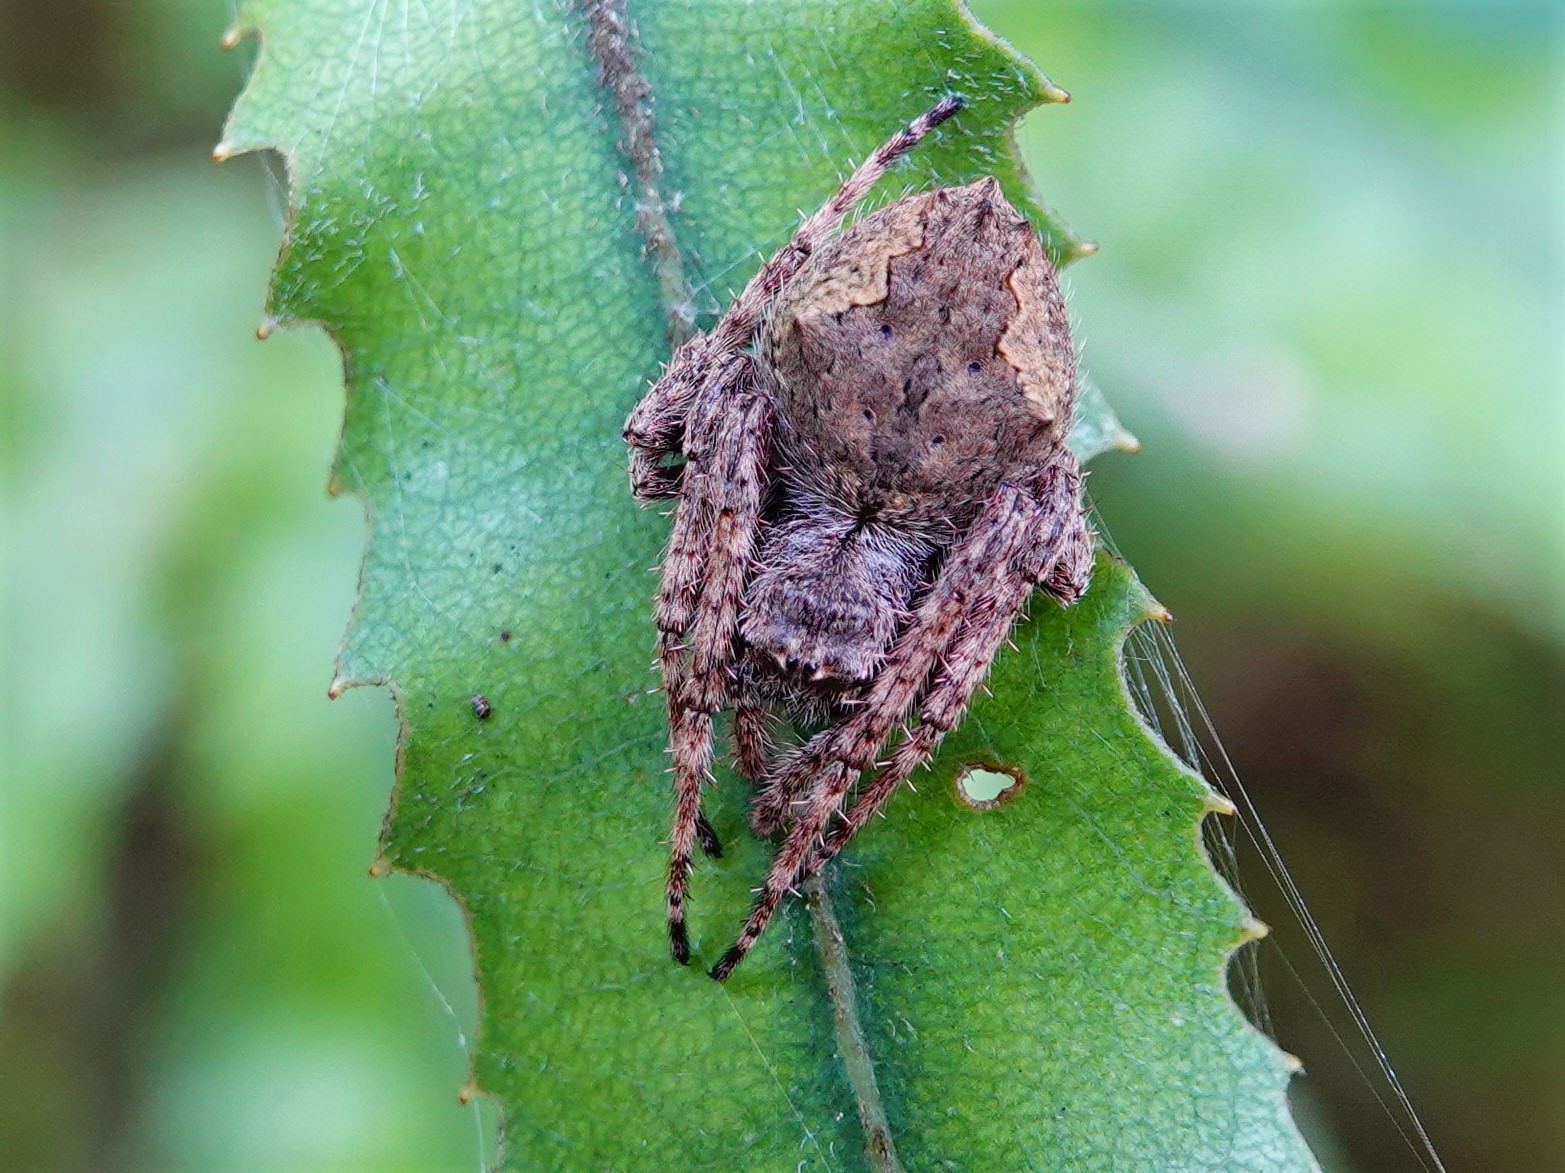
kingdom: Animalia
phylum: Arthropoda
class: Arachnida
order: Araneae
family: Araneidae
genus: Eriophora
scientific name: Eriophora pustulosa
